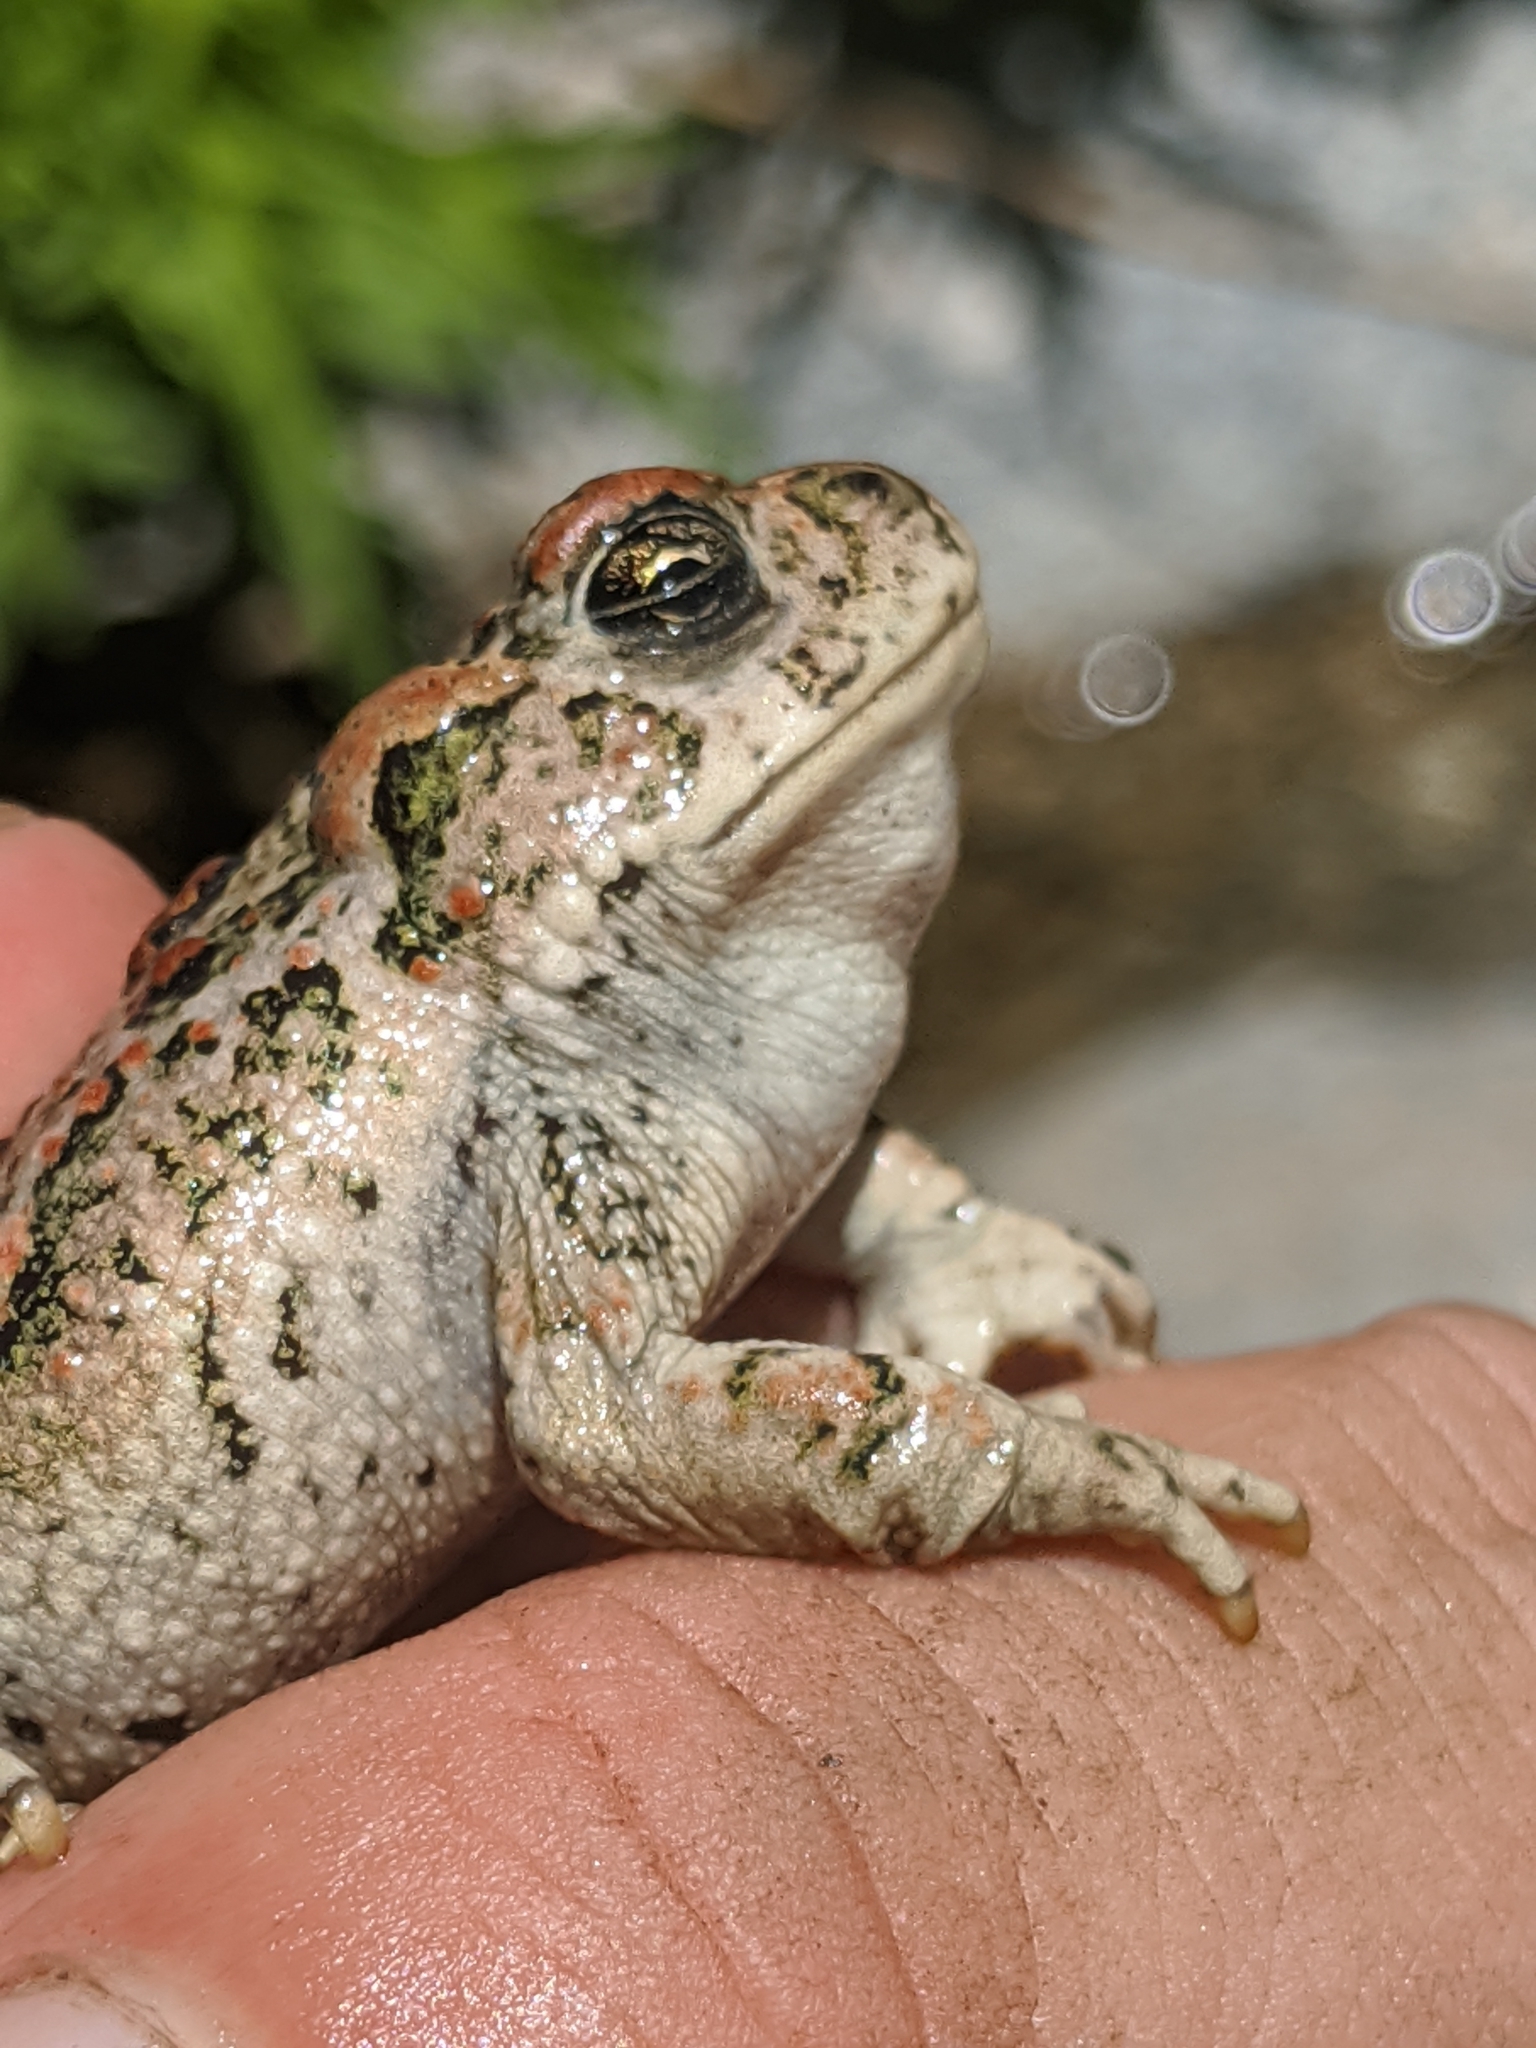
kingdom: Animalia
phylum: Chordata
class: Amphibia
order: Anura
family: Bufonidae
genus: Anaxyrus
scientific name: Anaxyrus boreas
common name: Western toad
